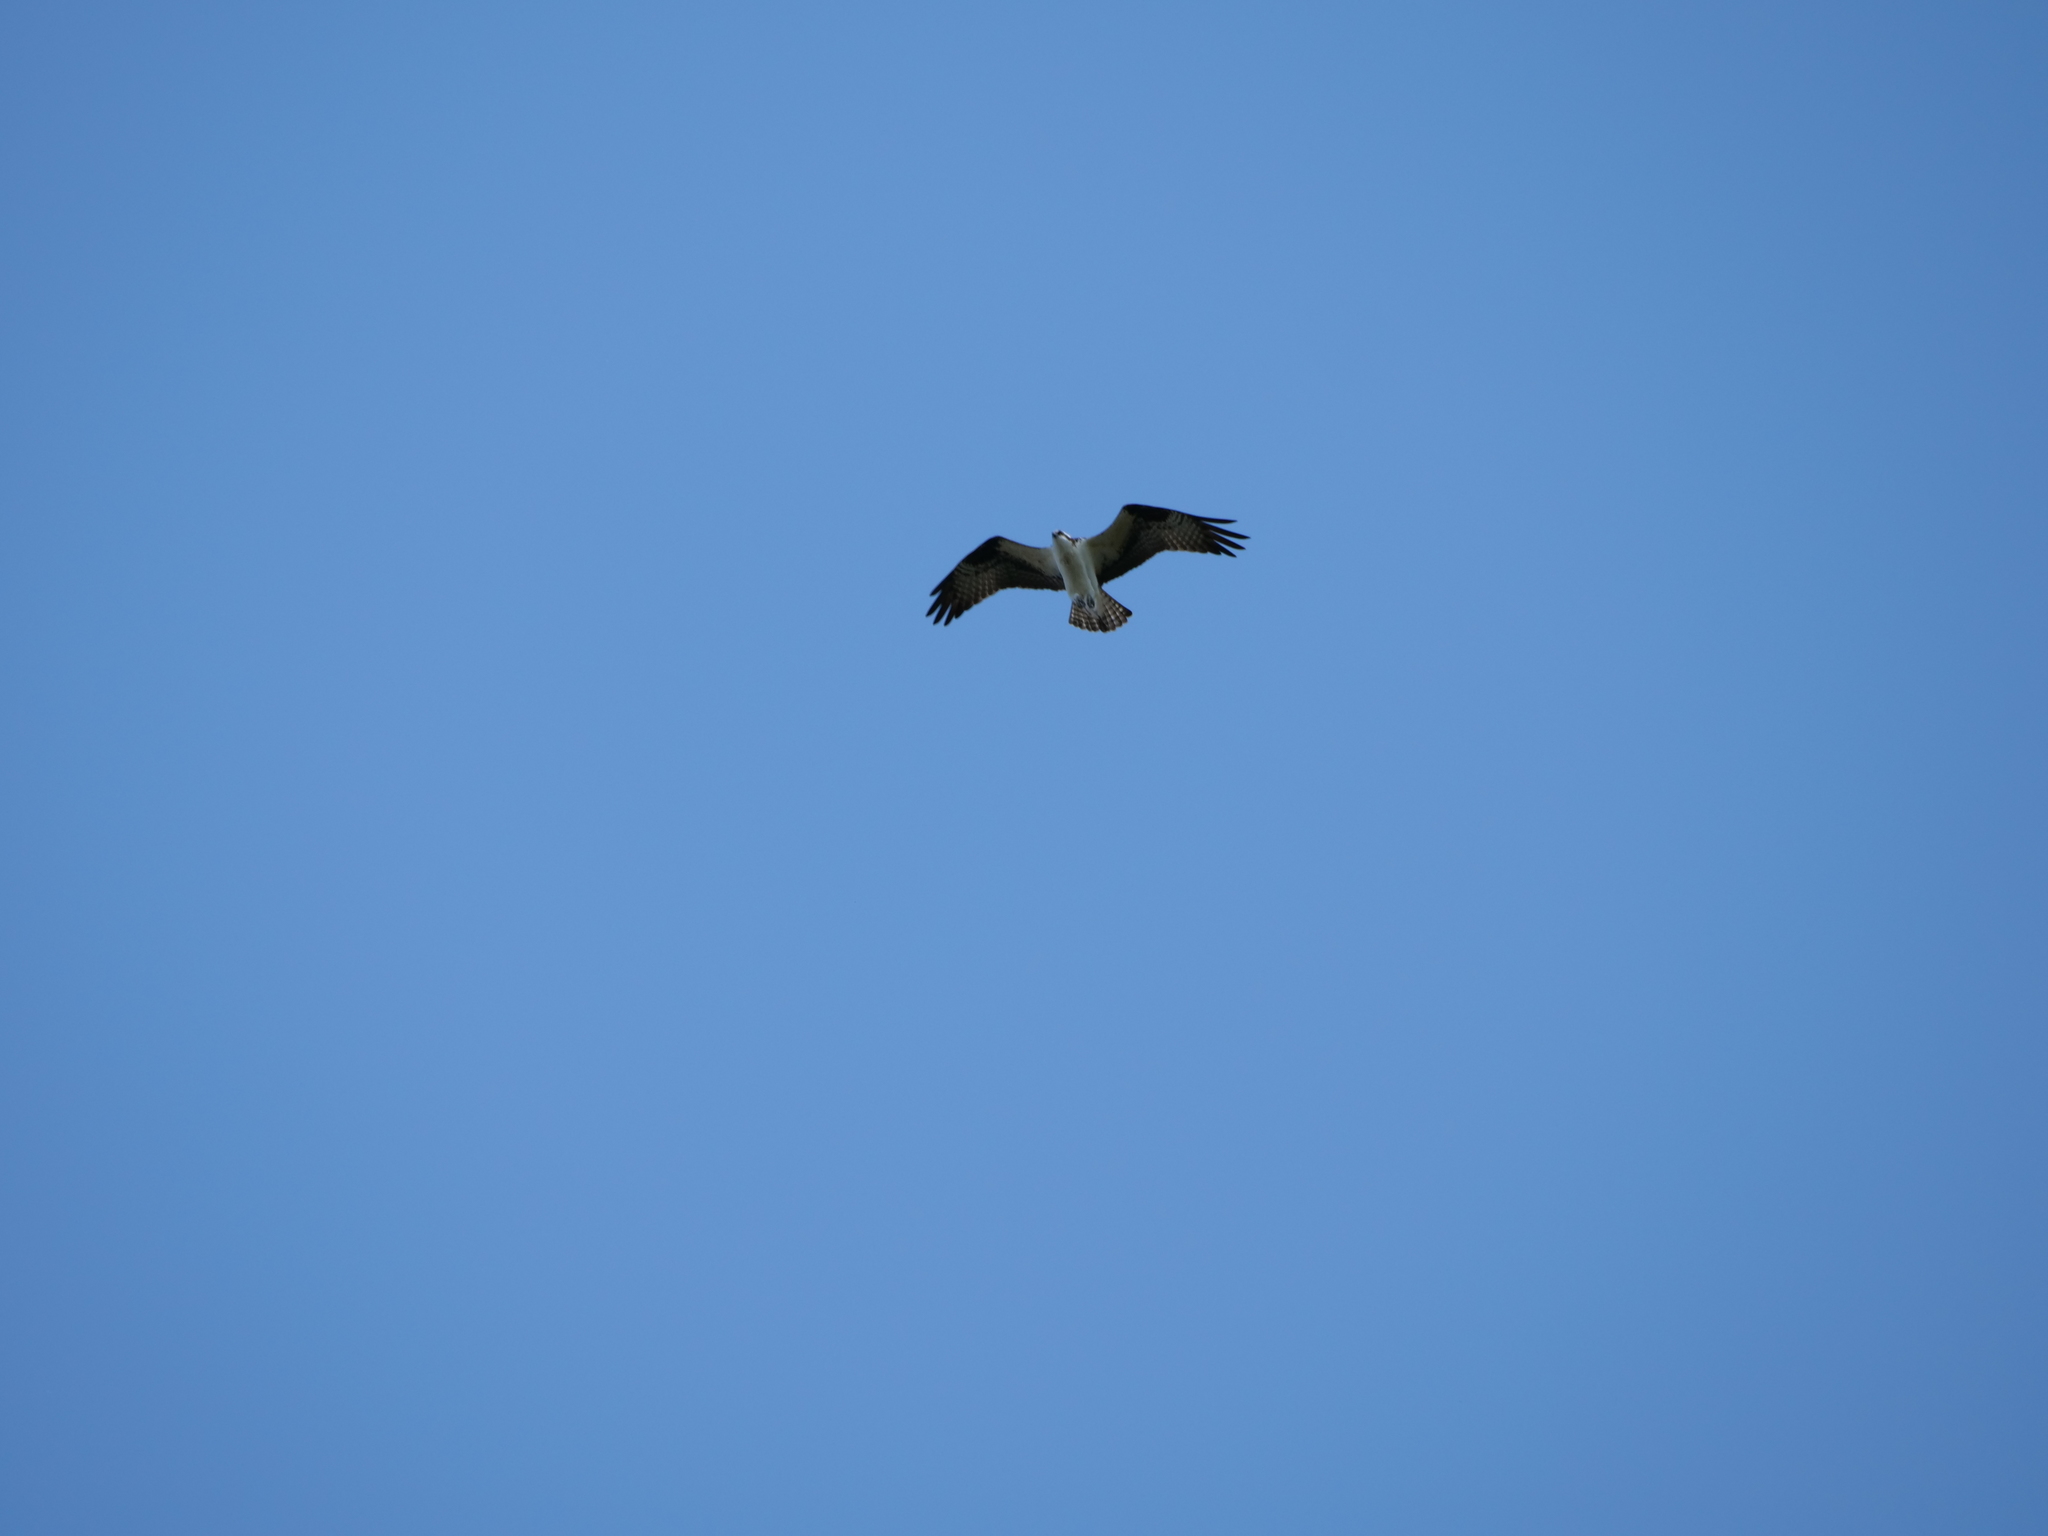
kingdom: Animalia
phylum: Chordata
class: Aves
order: Accipitriformes
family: Pandionidae
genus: Pandion
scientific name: Pandion haliaetus
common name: Osprey
